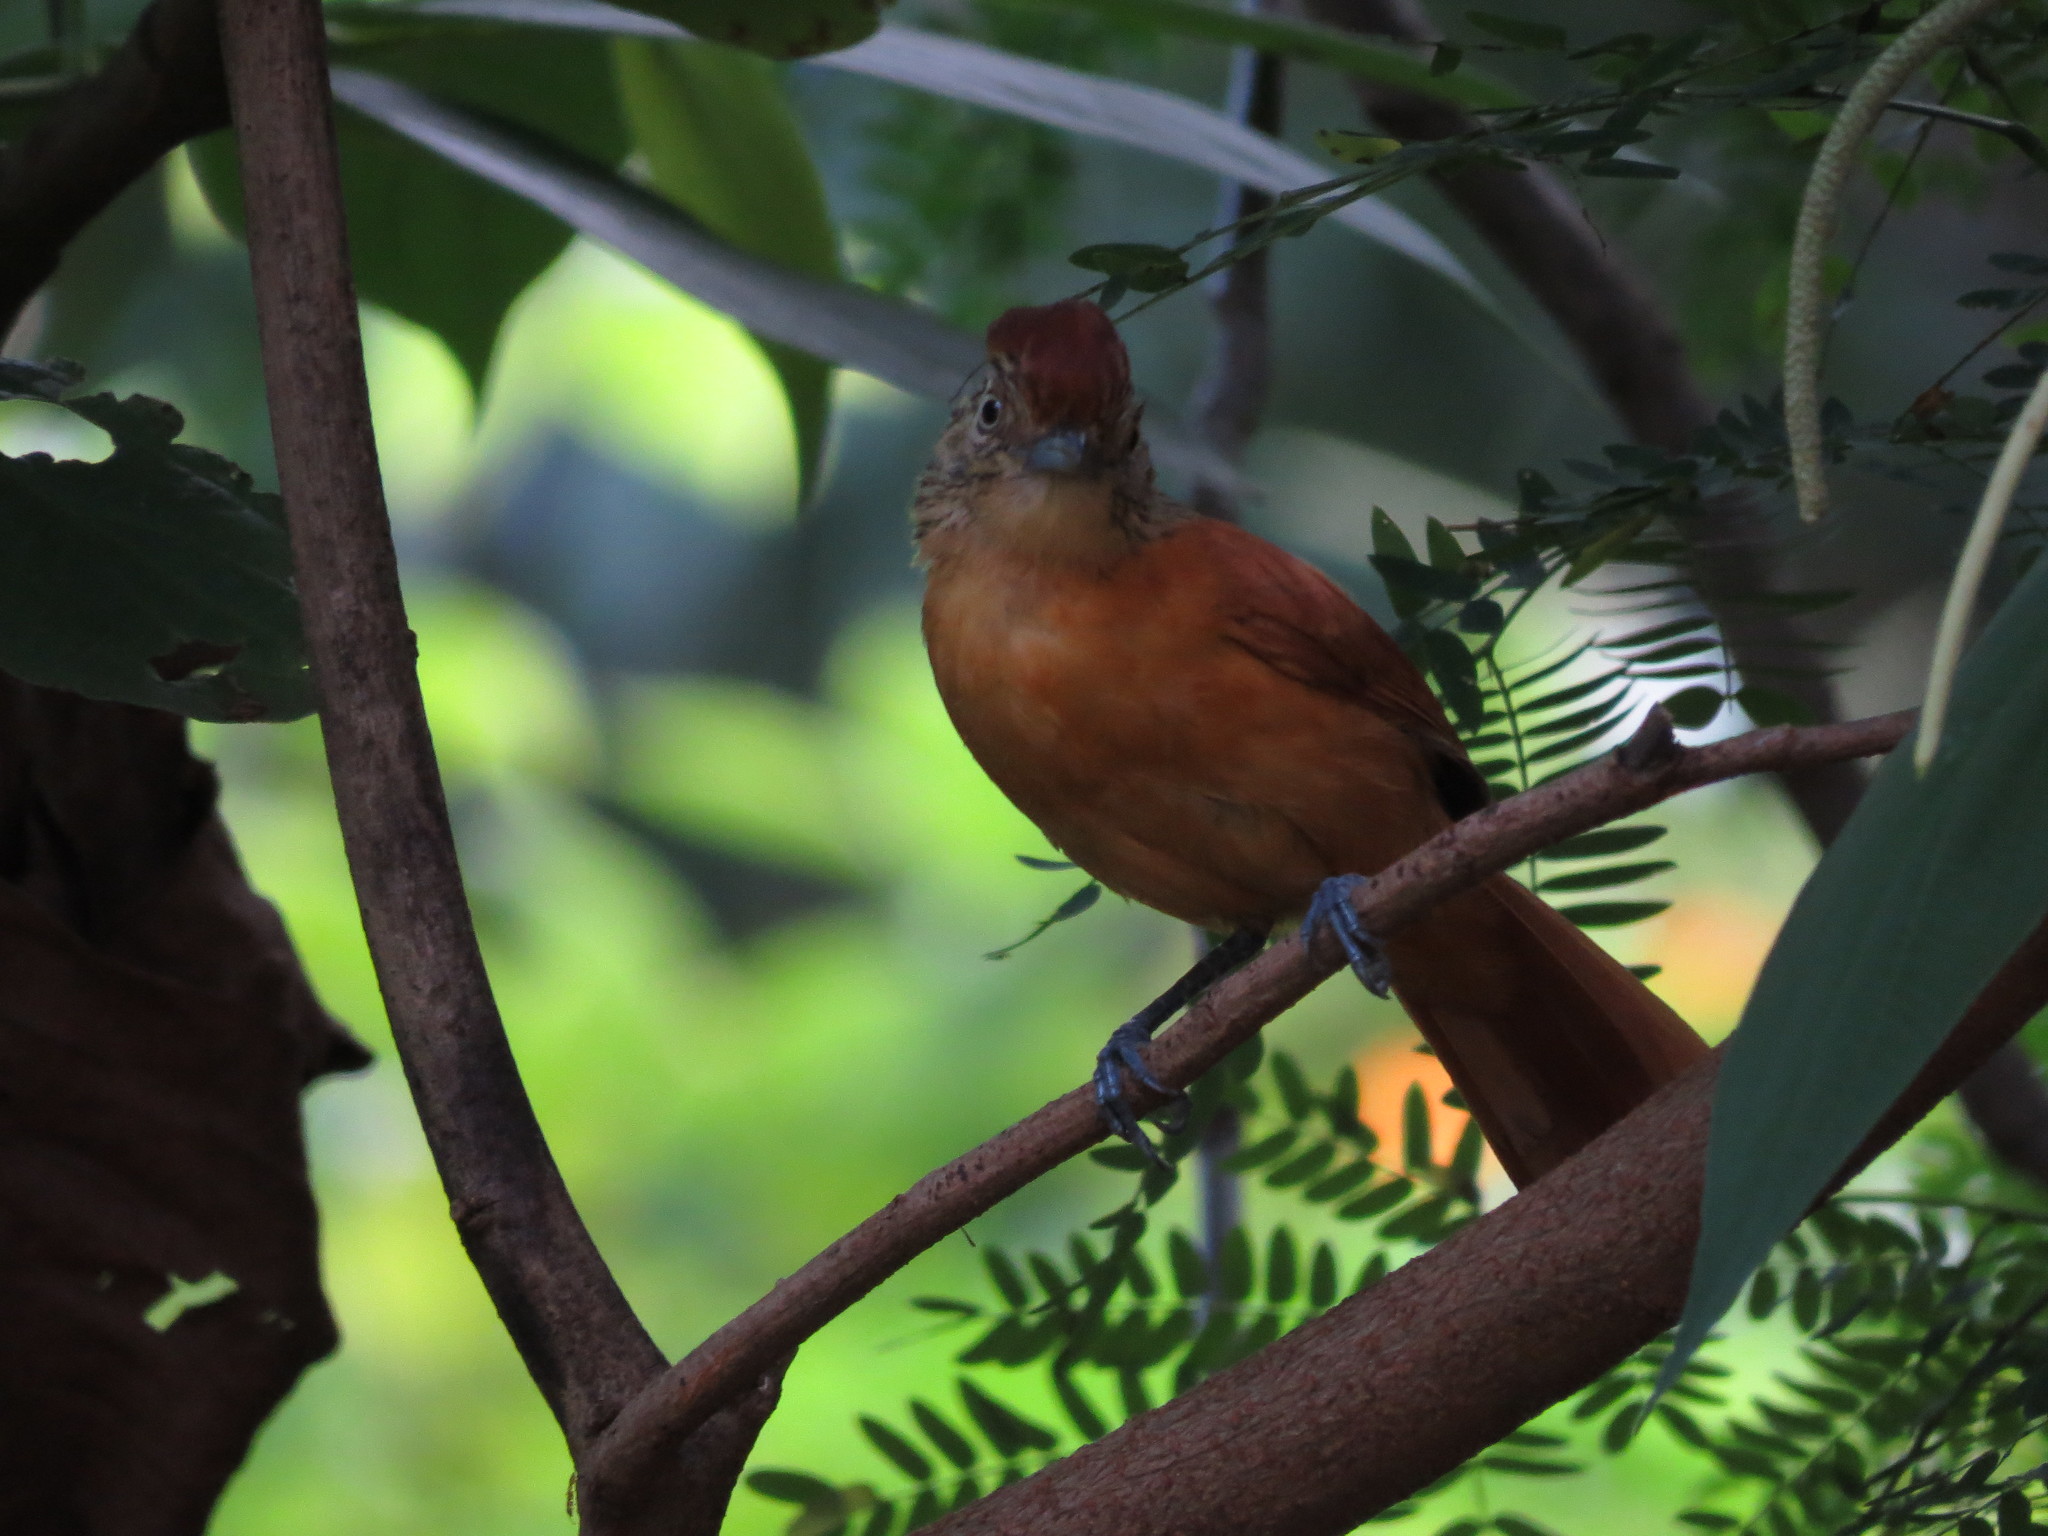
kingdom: Animalia
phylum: Chordata
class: Aves
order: Passeriformes
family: Thamnophilidae
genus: Thamnophilus
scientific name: Thamnophilus doliatus
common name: Barred antshrike
